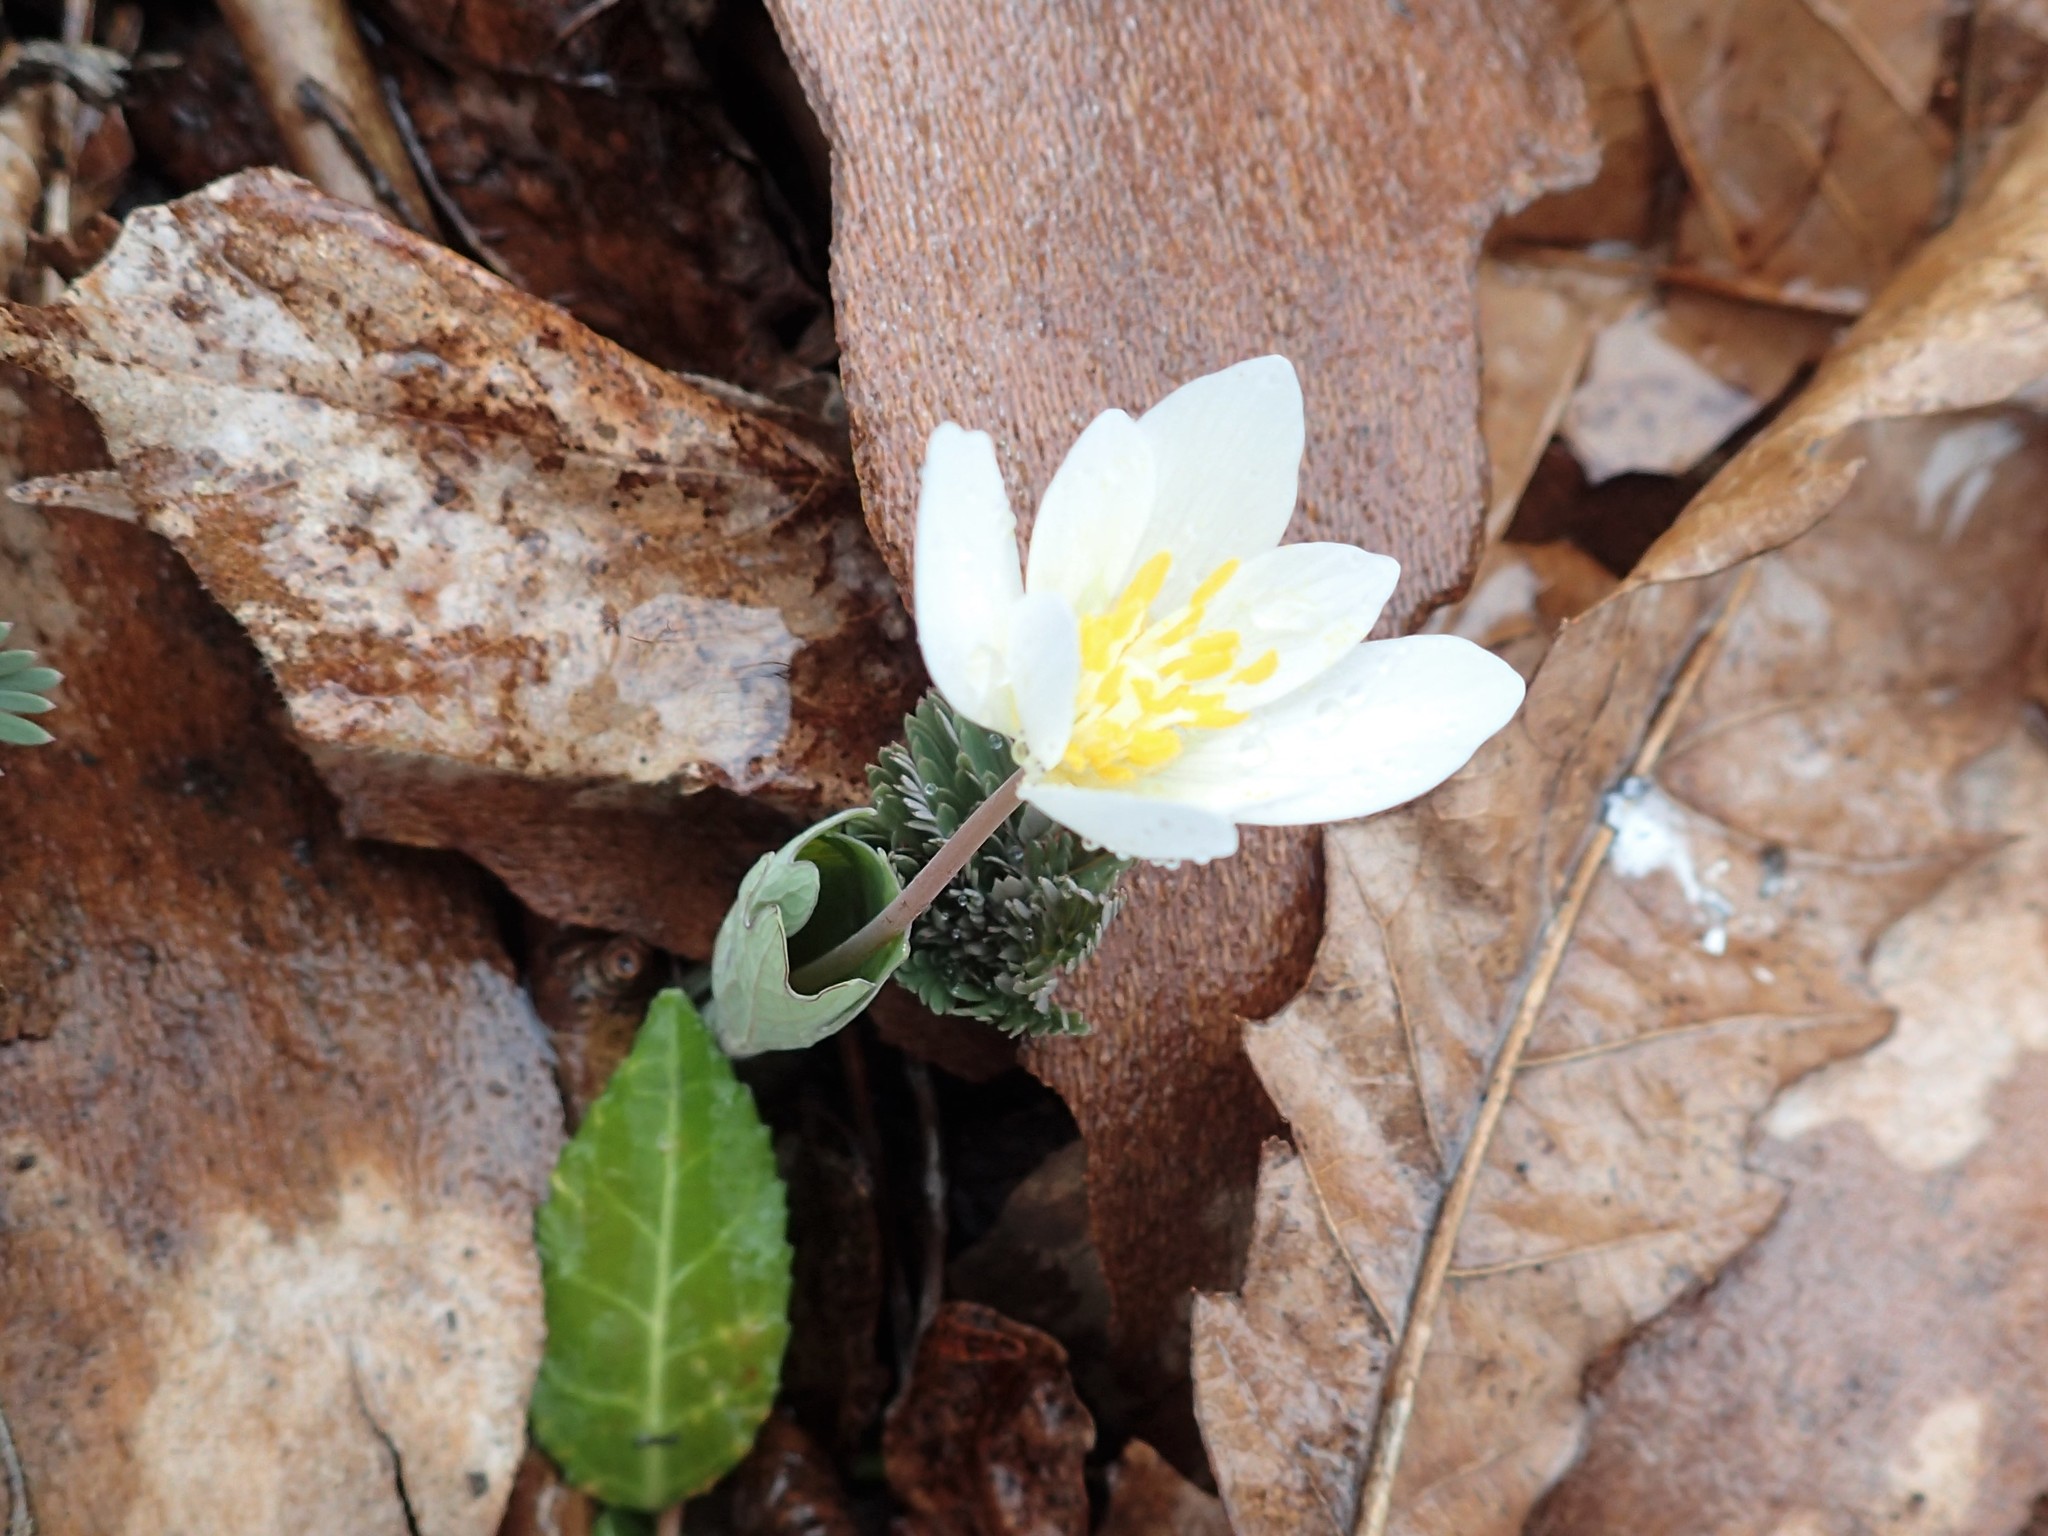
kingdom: Plantae
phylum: Tracheophyta
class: Magnoliopsida
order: Ranunculales
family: Papaveraceae
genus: Sanguinaria
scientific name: Sanguinaria canadensis
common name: Bloodroot
